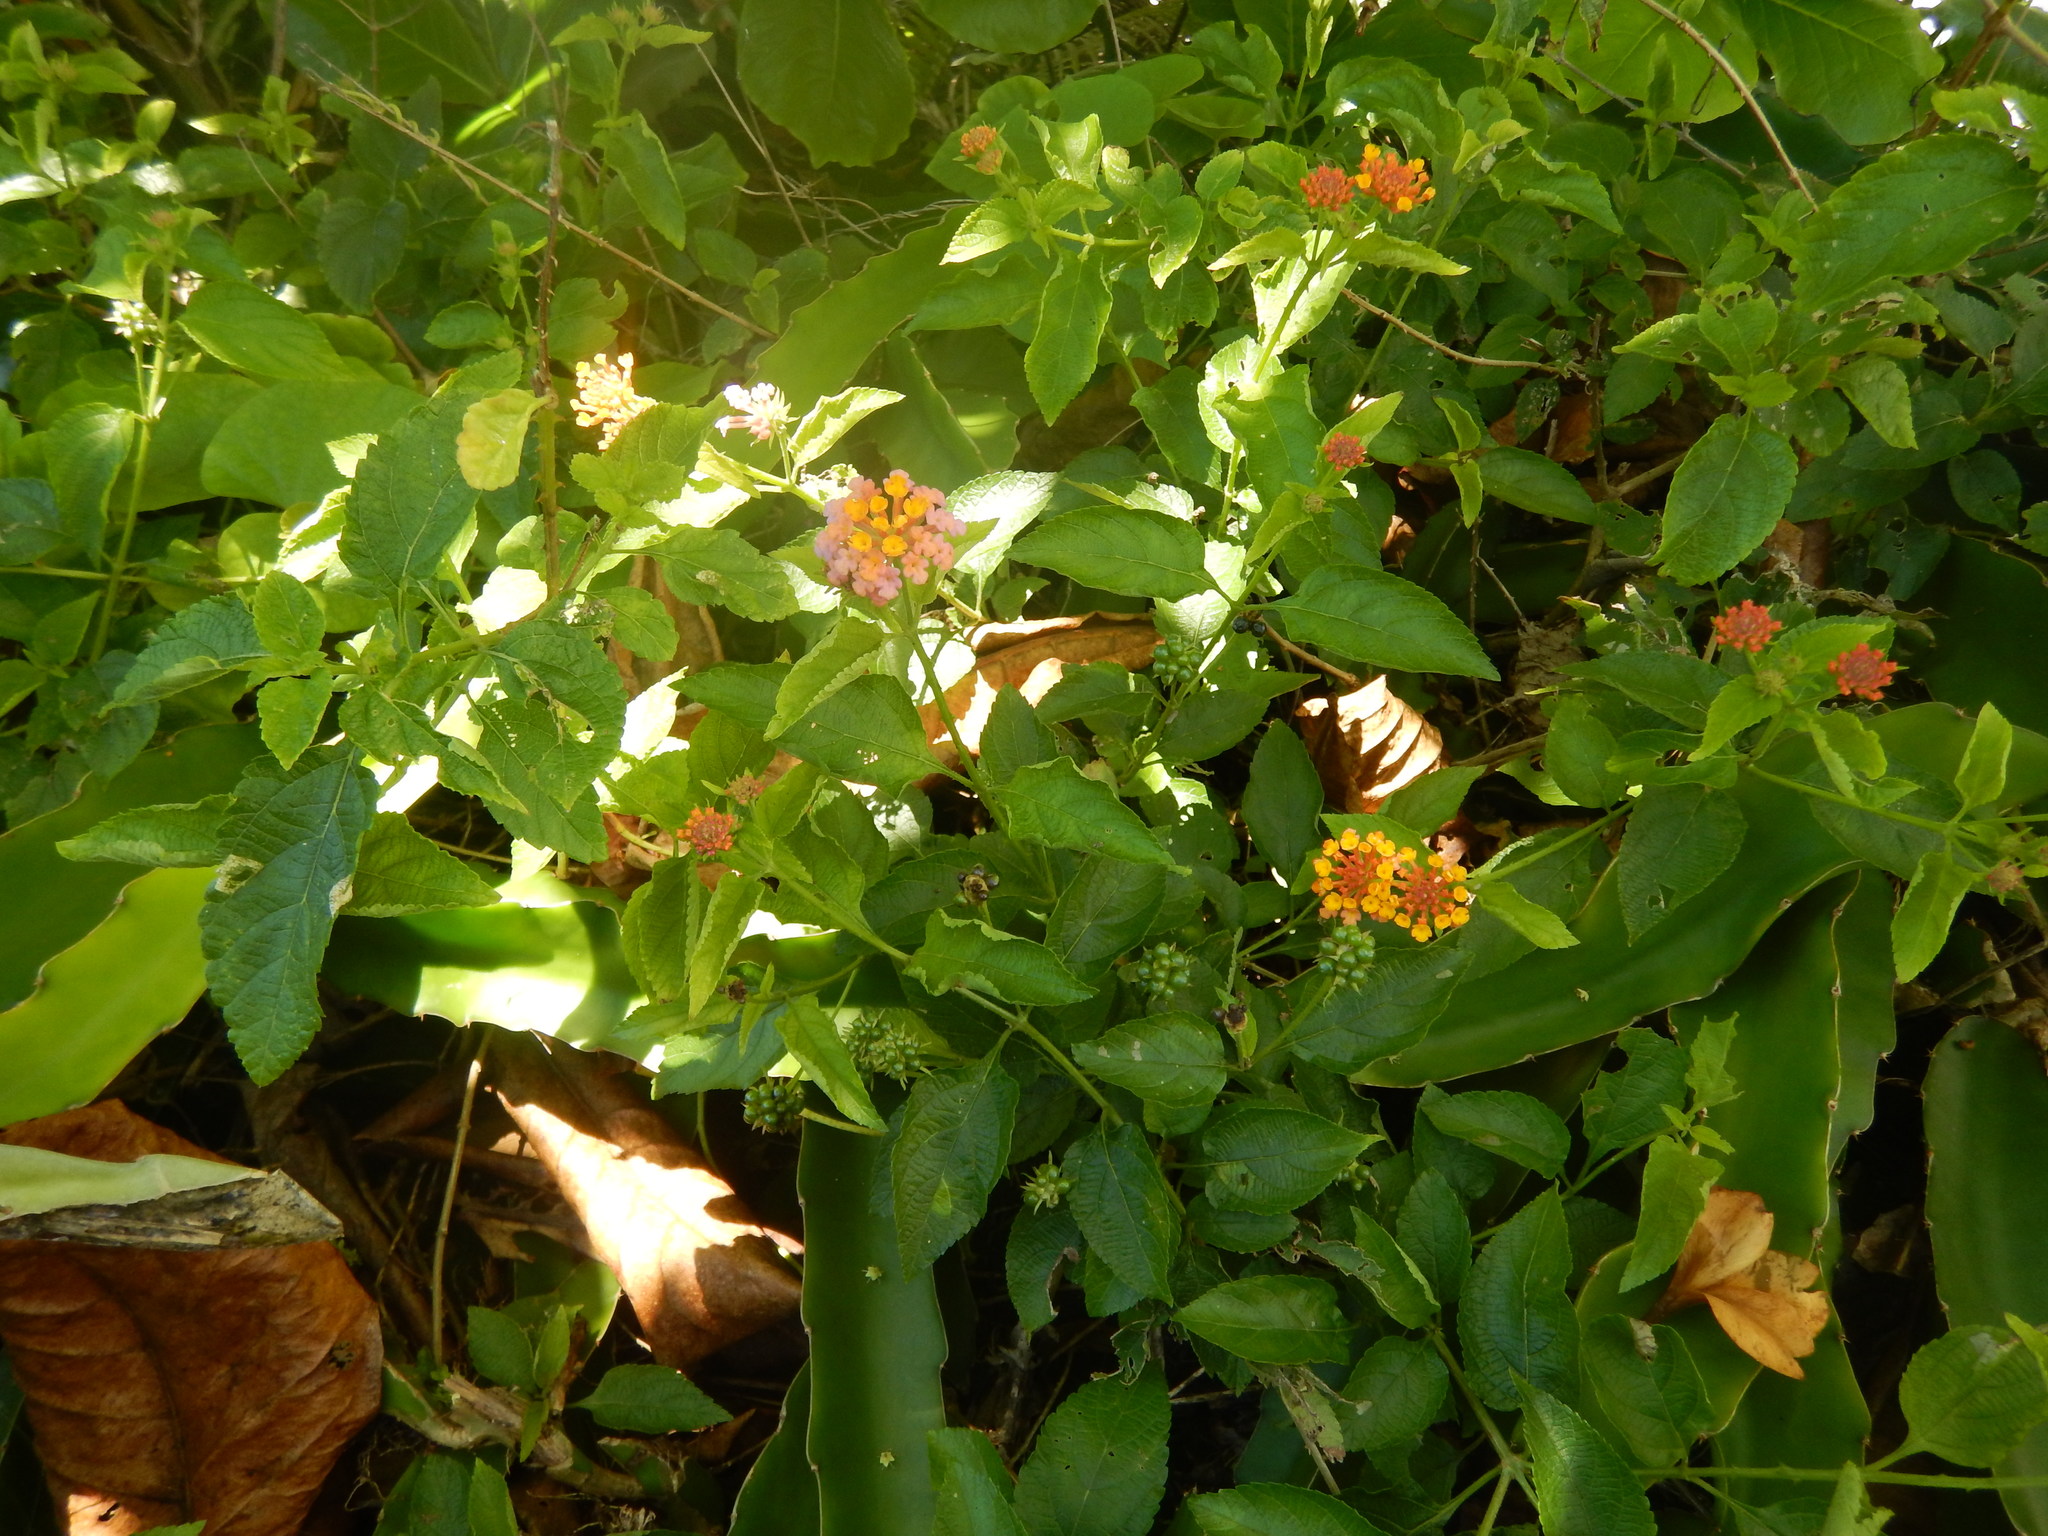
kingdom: Plantae
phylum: Tracheophyta
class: Magnoliopsida
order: Lamiales
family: Verbenaceae
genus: Lantana
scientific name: Lantana camara
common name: Lantana
